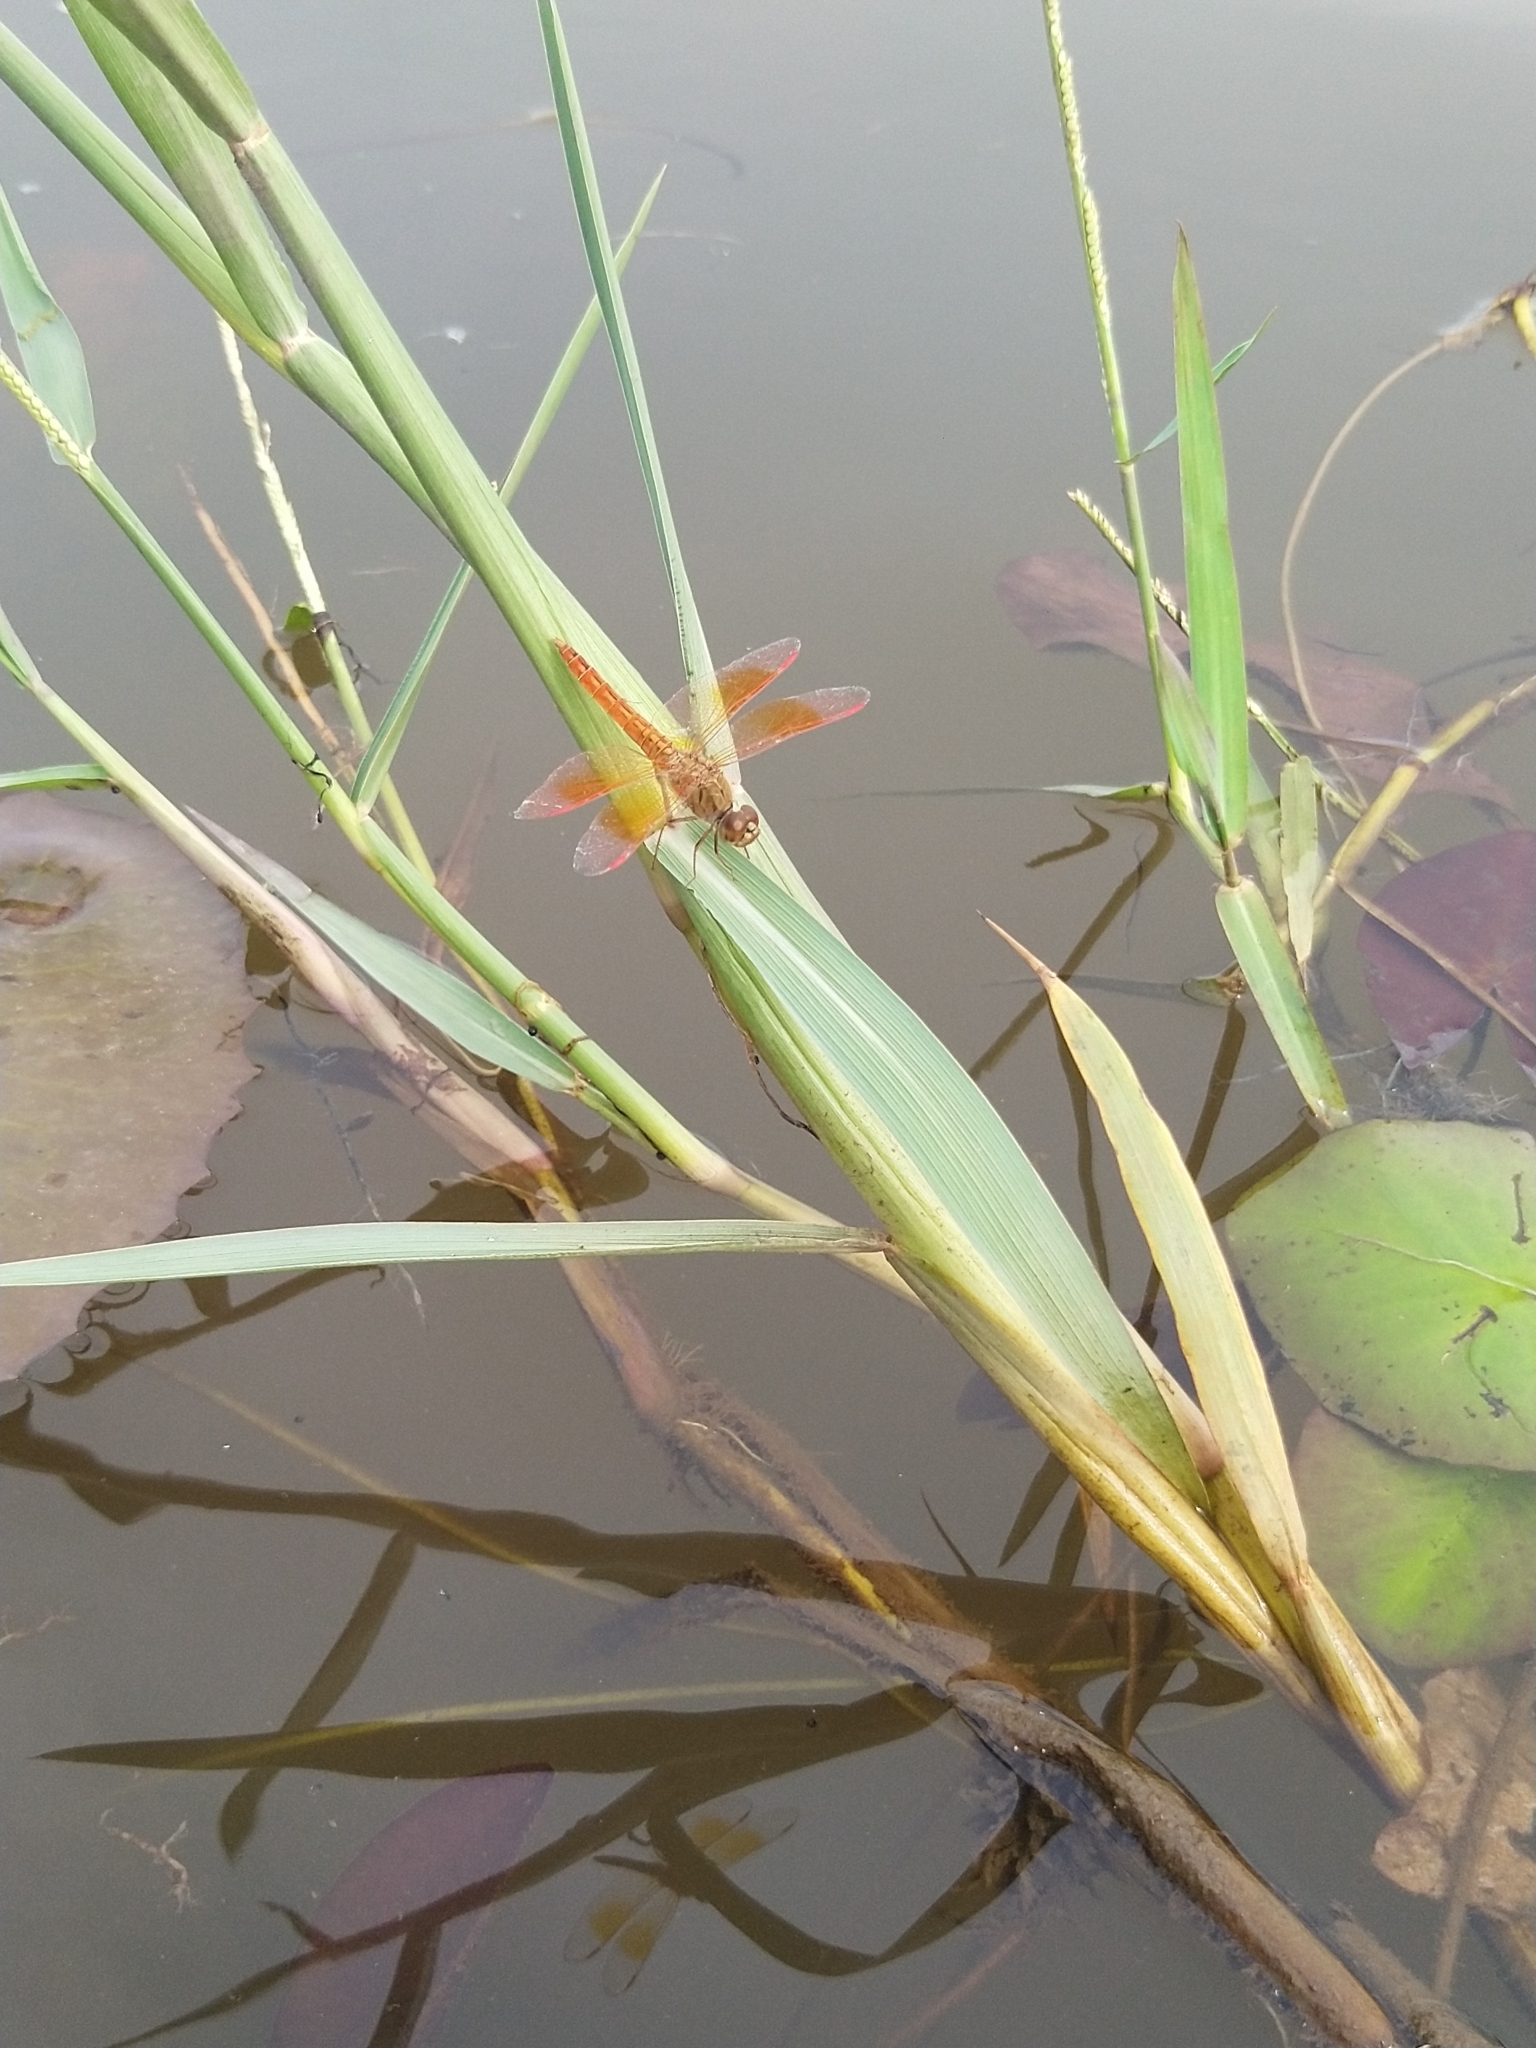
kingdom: Animalia
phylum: Arthropoda
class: Insecta
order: Odonata
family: Libellulidae
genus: Brachythemis
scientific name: Brachythemis contaminata
